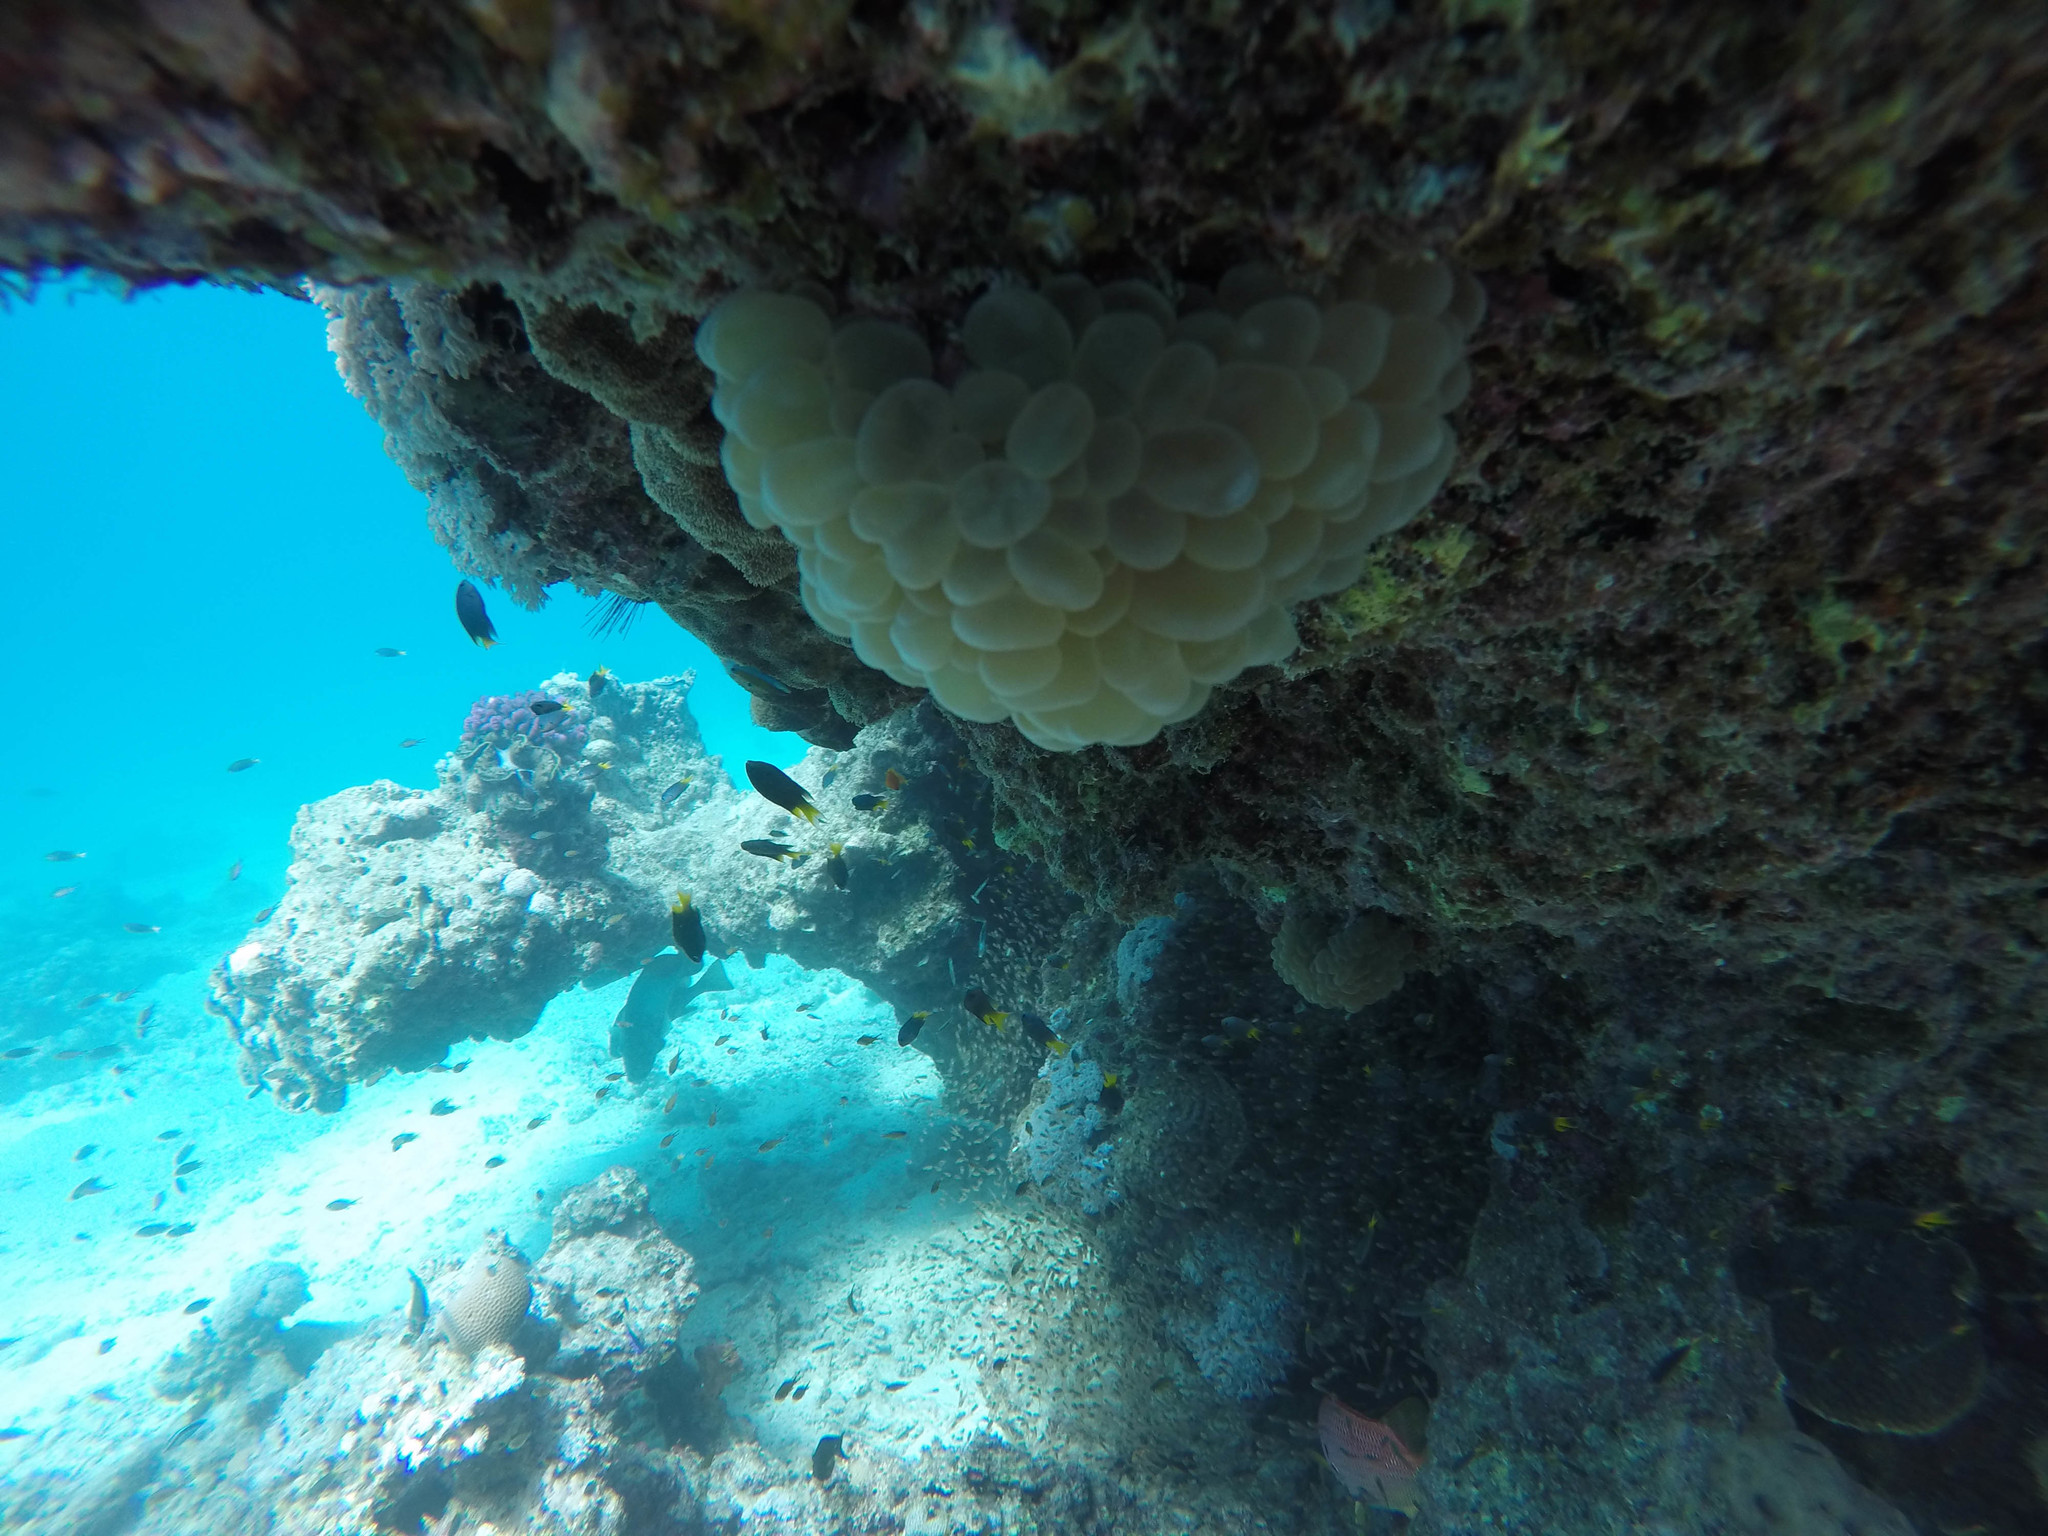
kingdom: Animalia
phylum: Cnidaria
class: Anthozoa
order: Scleractinia
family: Plerogyridae
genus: Plerogyra
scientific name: Plerogyra sinuosa
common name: Bubble coral
